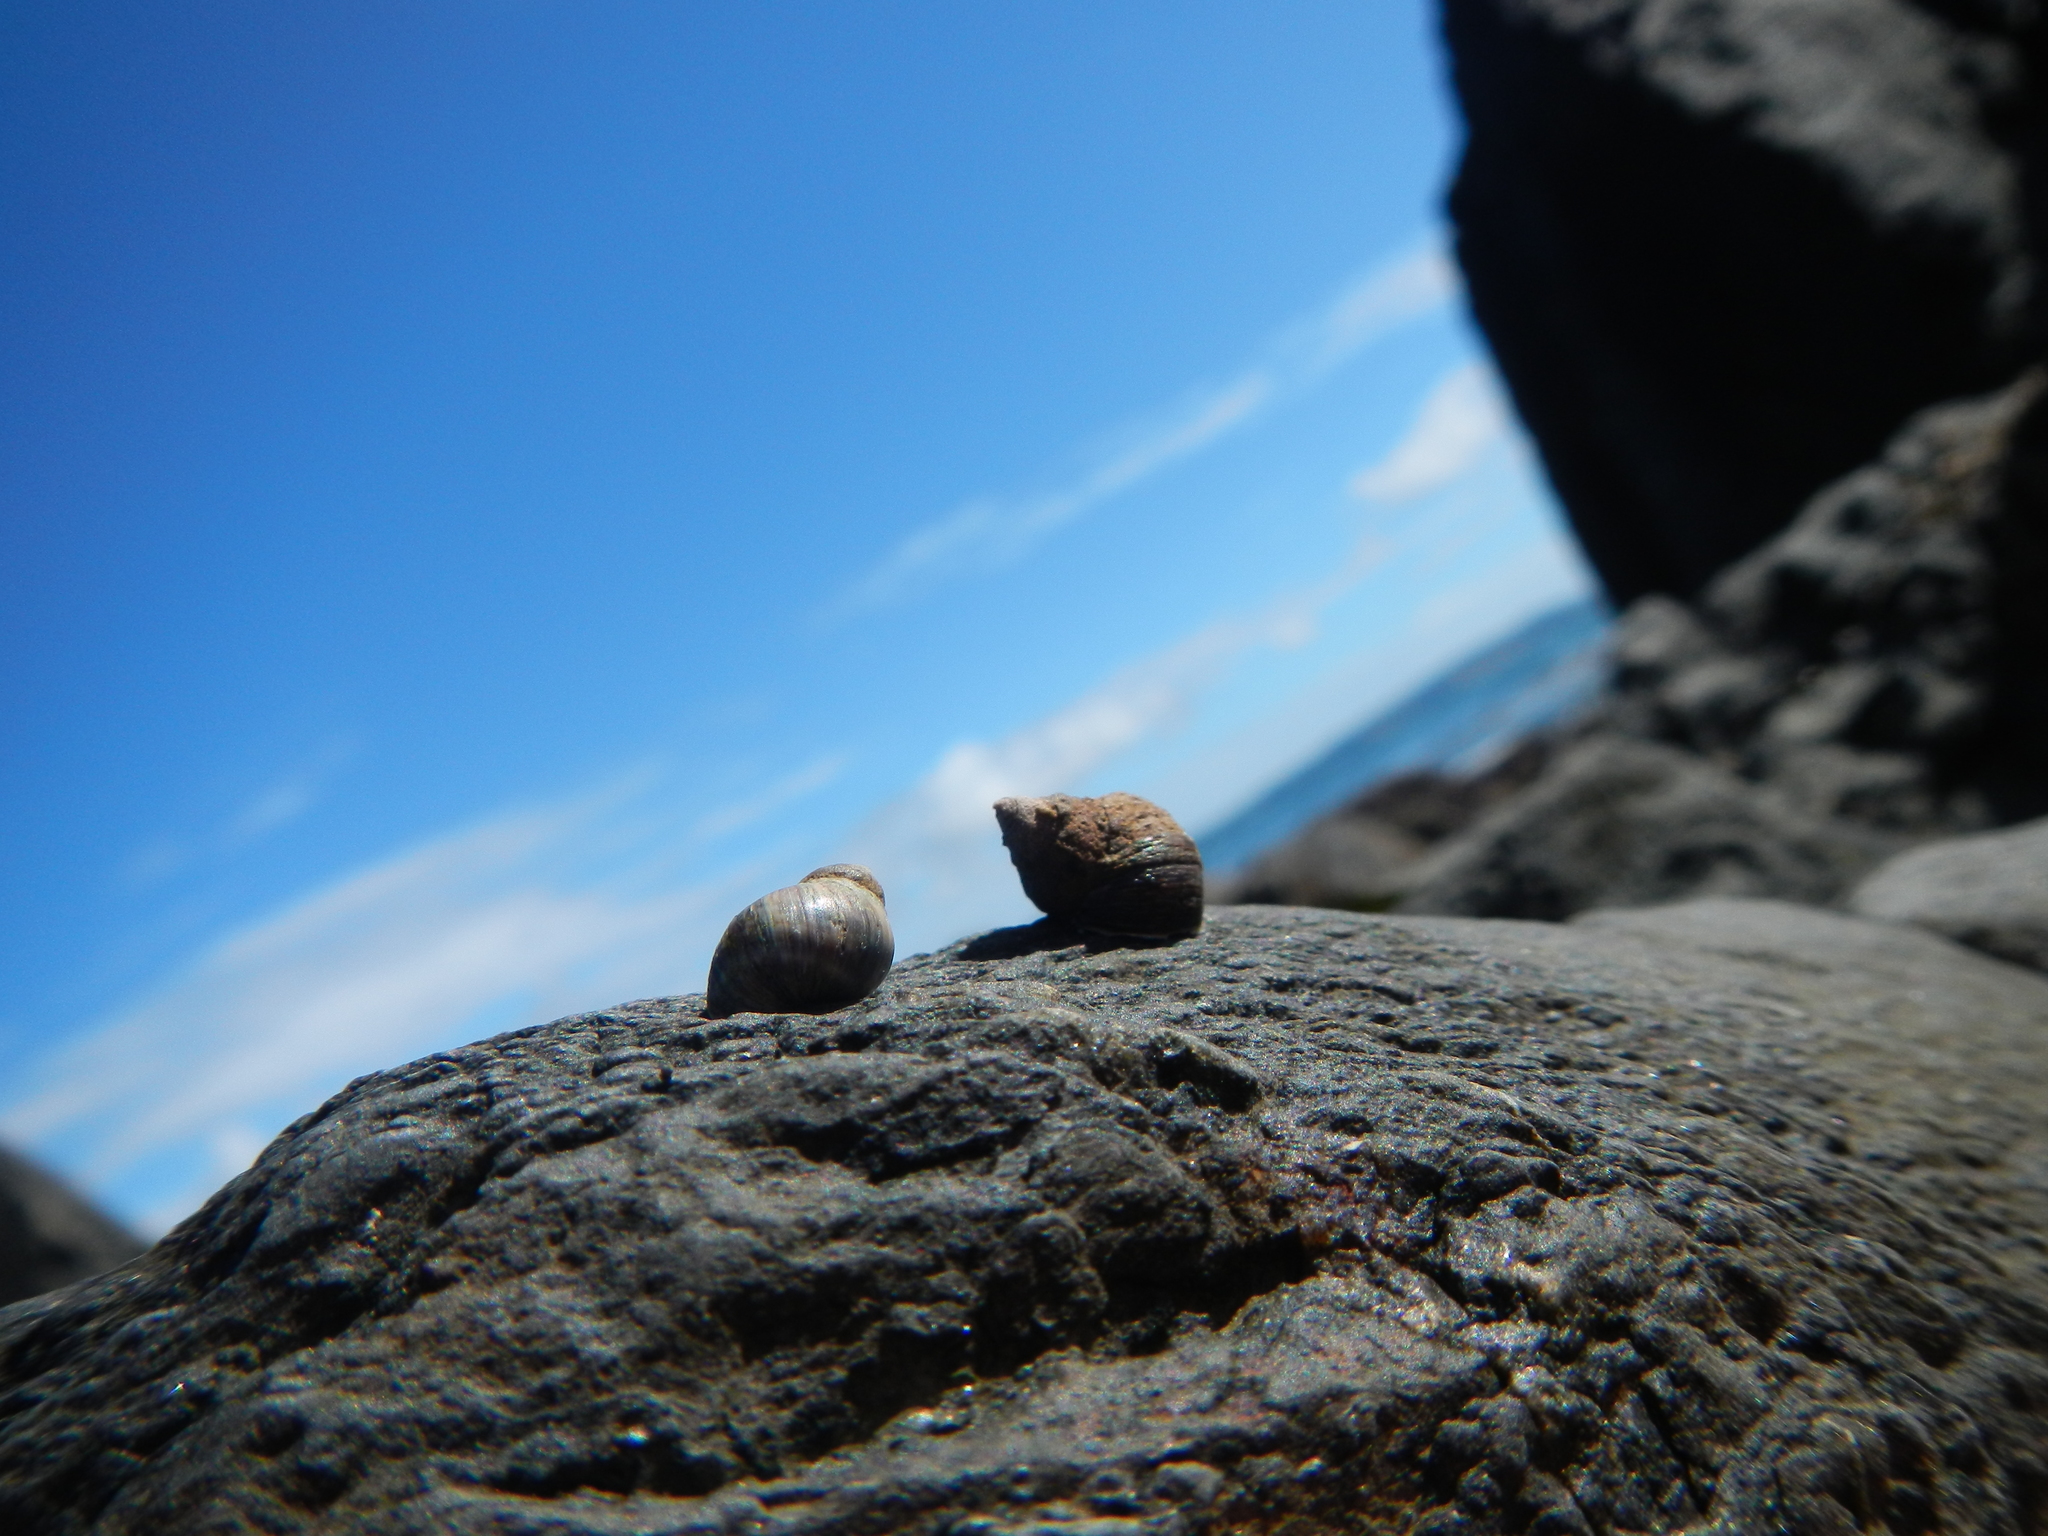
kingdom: Animalia
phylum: Mollusca
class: Gastropoda
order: Littorinimorpha
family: Littorinidae
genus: Austrolittorina
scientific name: Austrolittorina araucana
